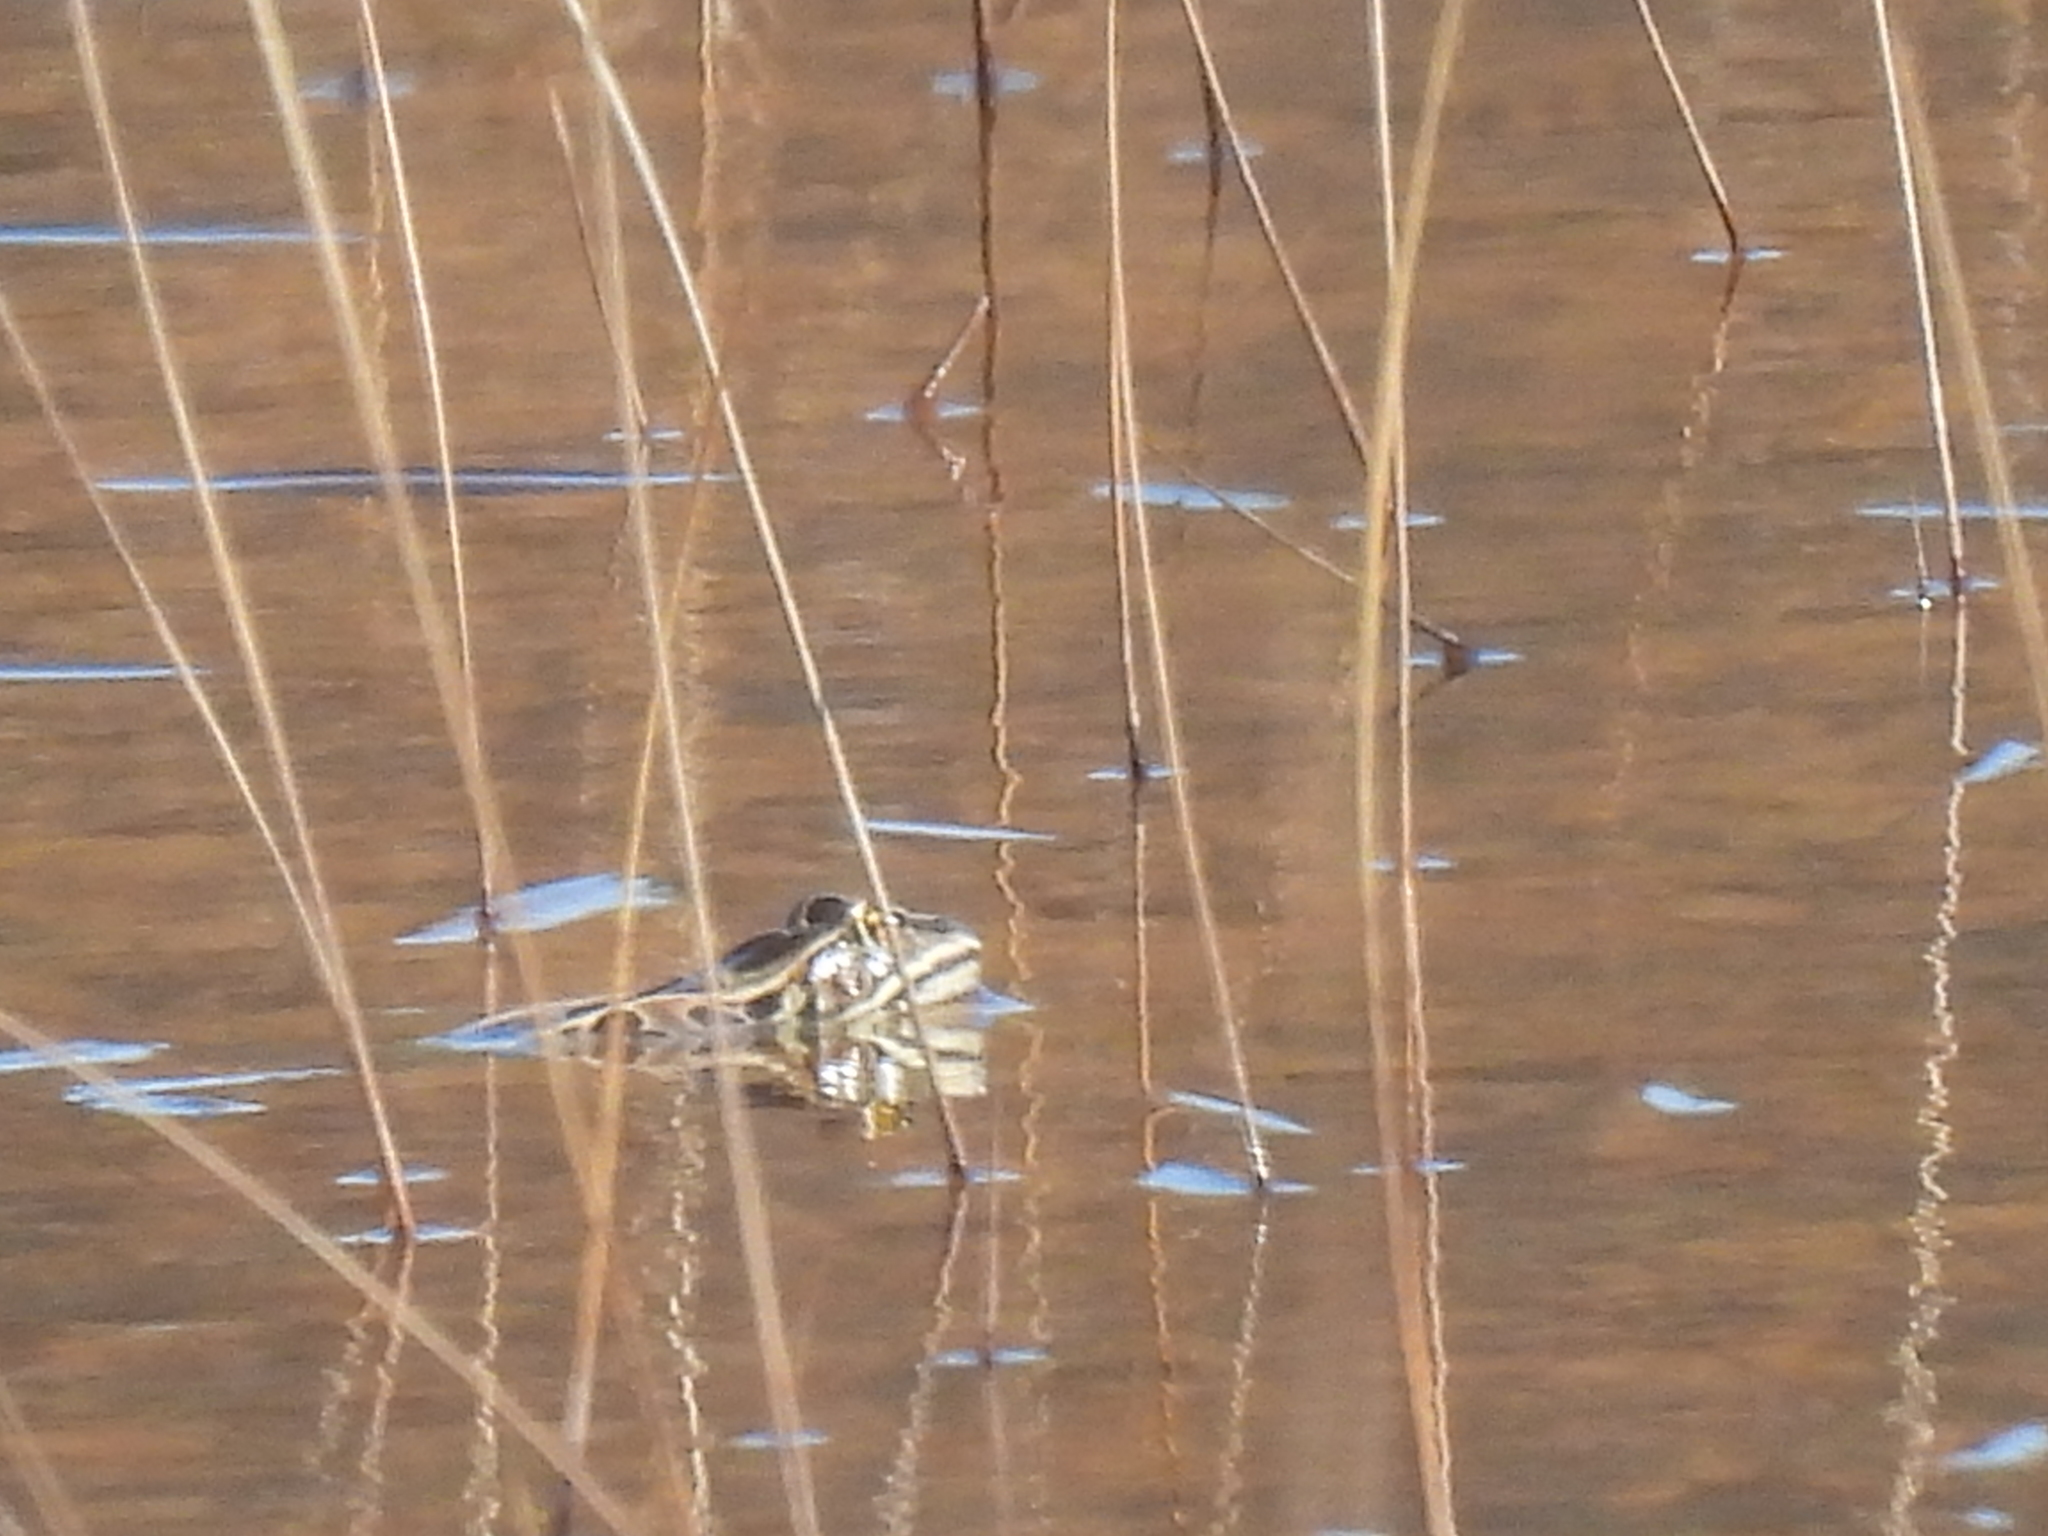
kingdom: Animalia
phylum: Chordata
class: Amphibia
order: Anura
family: Ranidae
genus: Lithobates
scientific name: Lithobates pipiens
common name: Northern leopard frog
